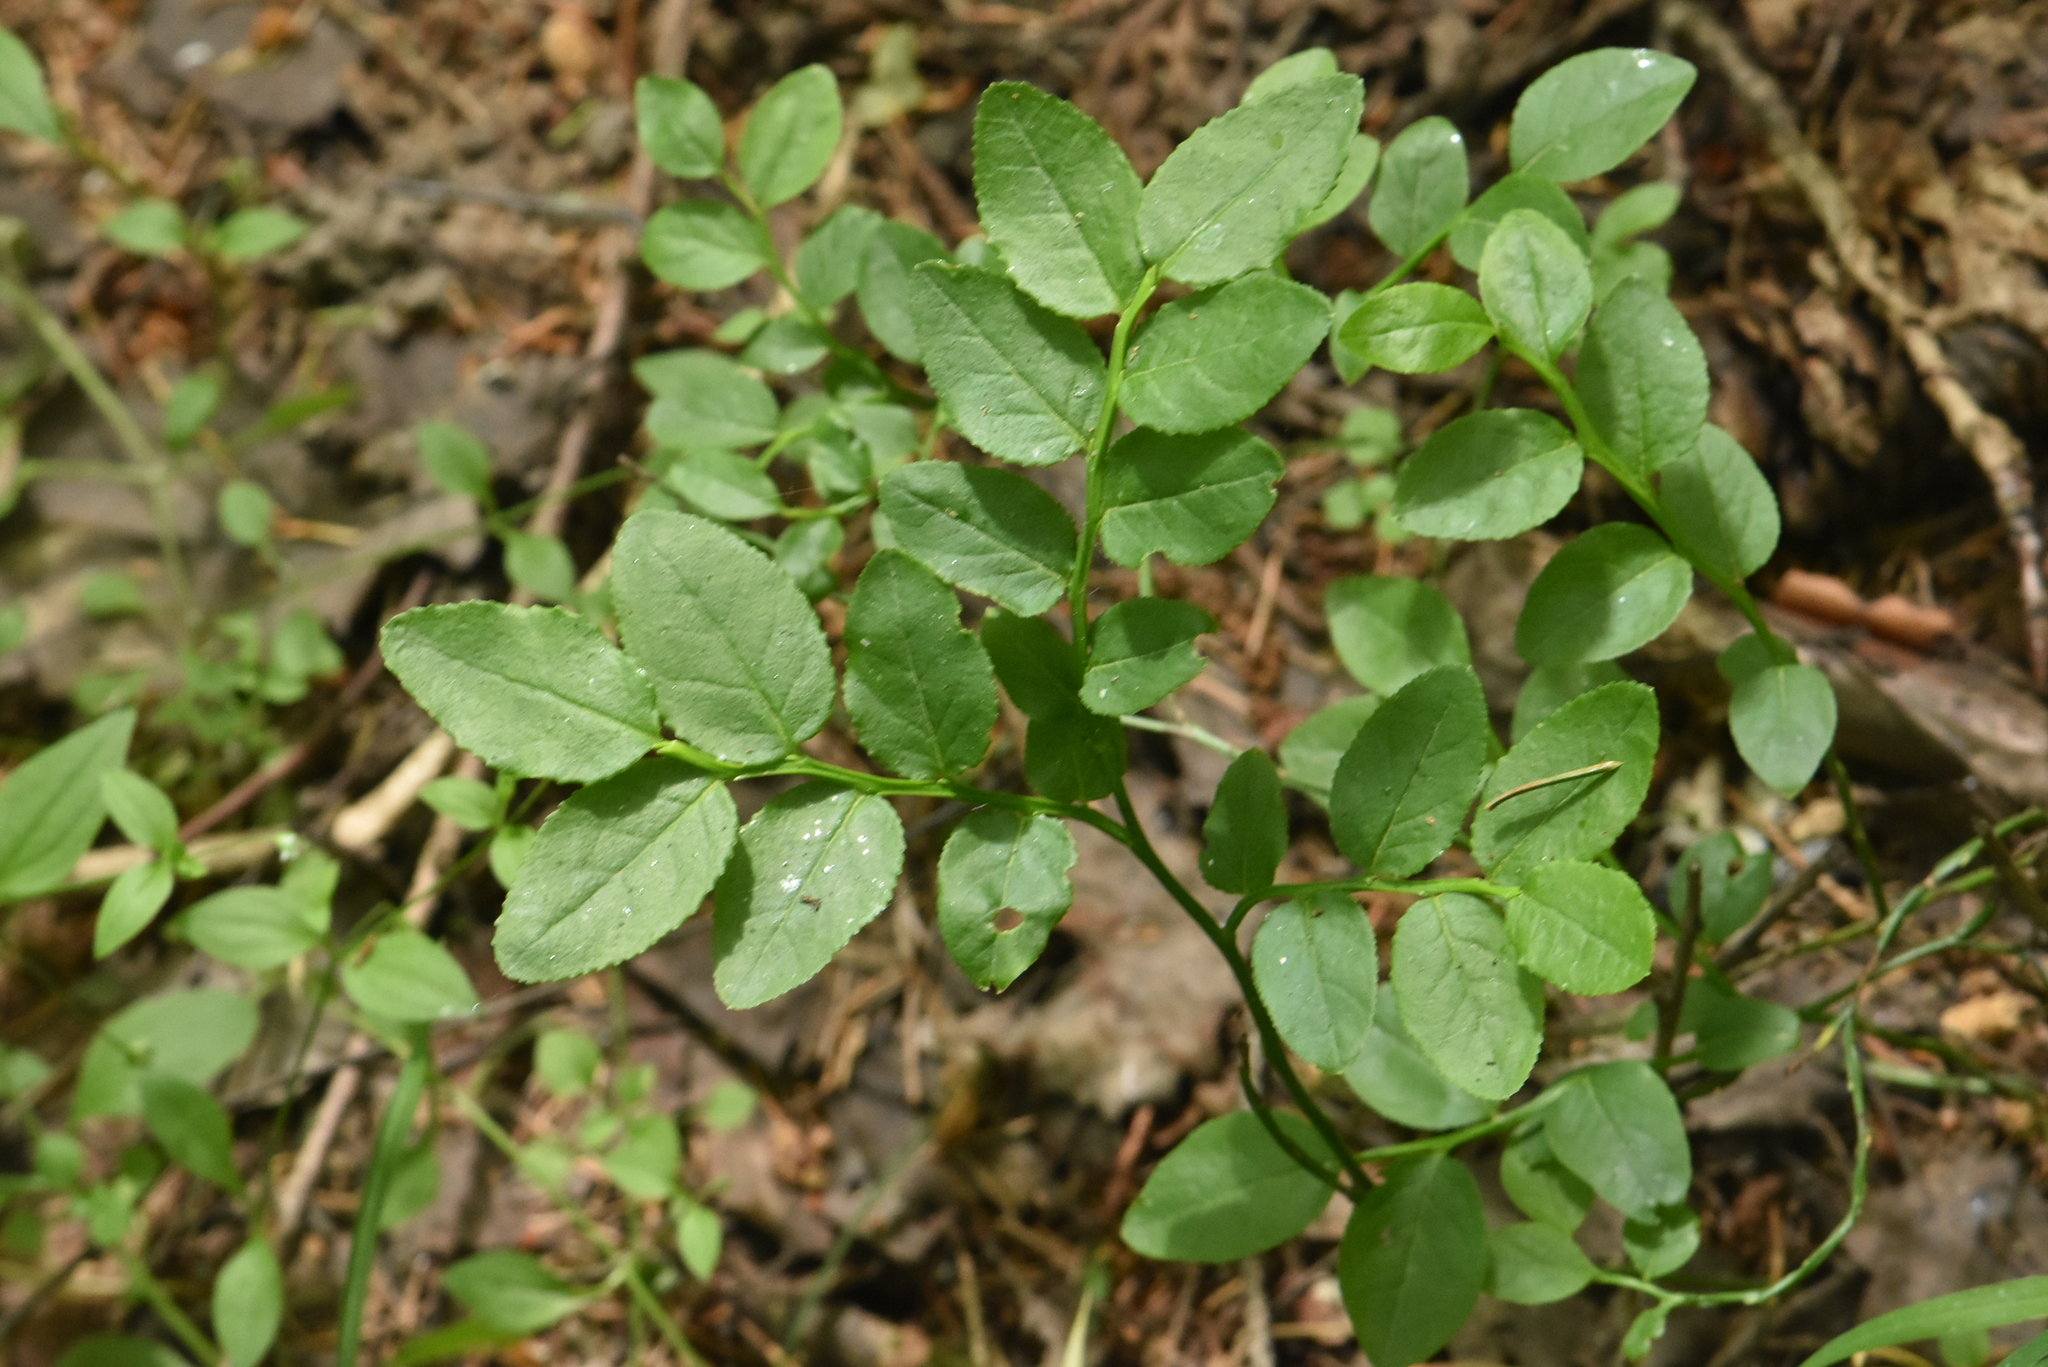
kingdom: Plantae
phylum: Tracheophyta
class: Magnoliopsida
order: Ericales
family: Ericaceae
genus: Vaccinium
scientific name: Vaccinium myrtillus
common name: Bilberry
